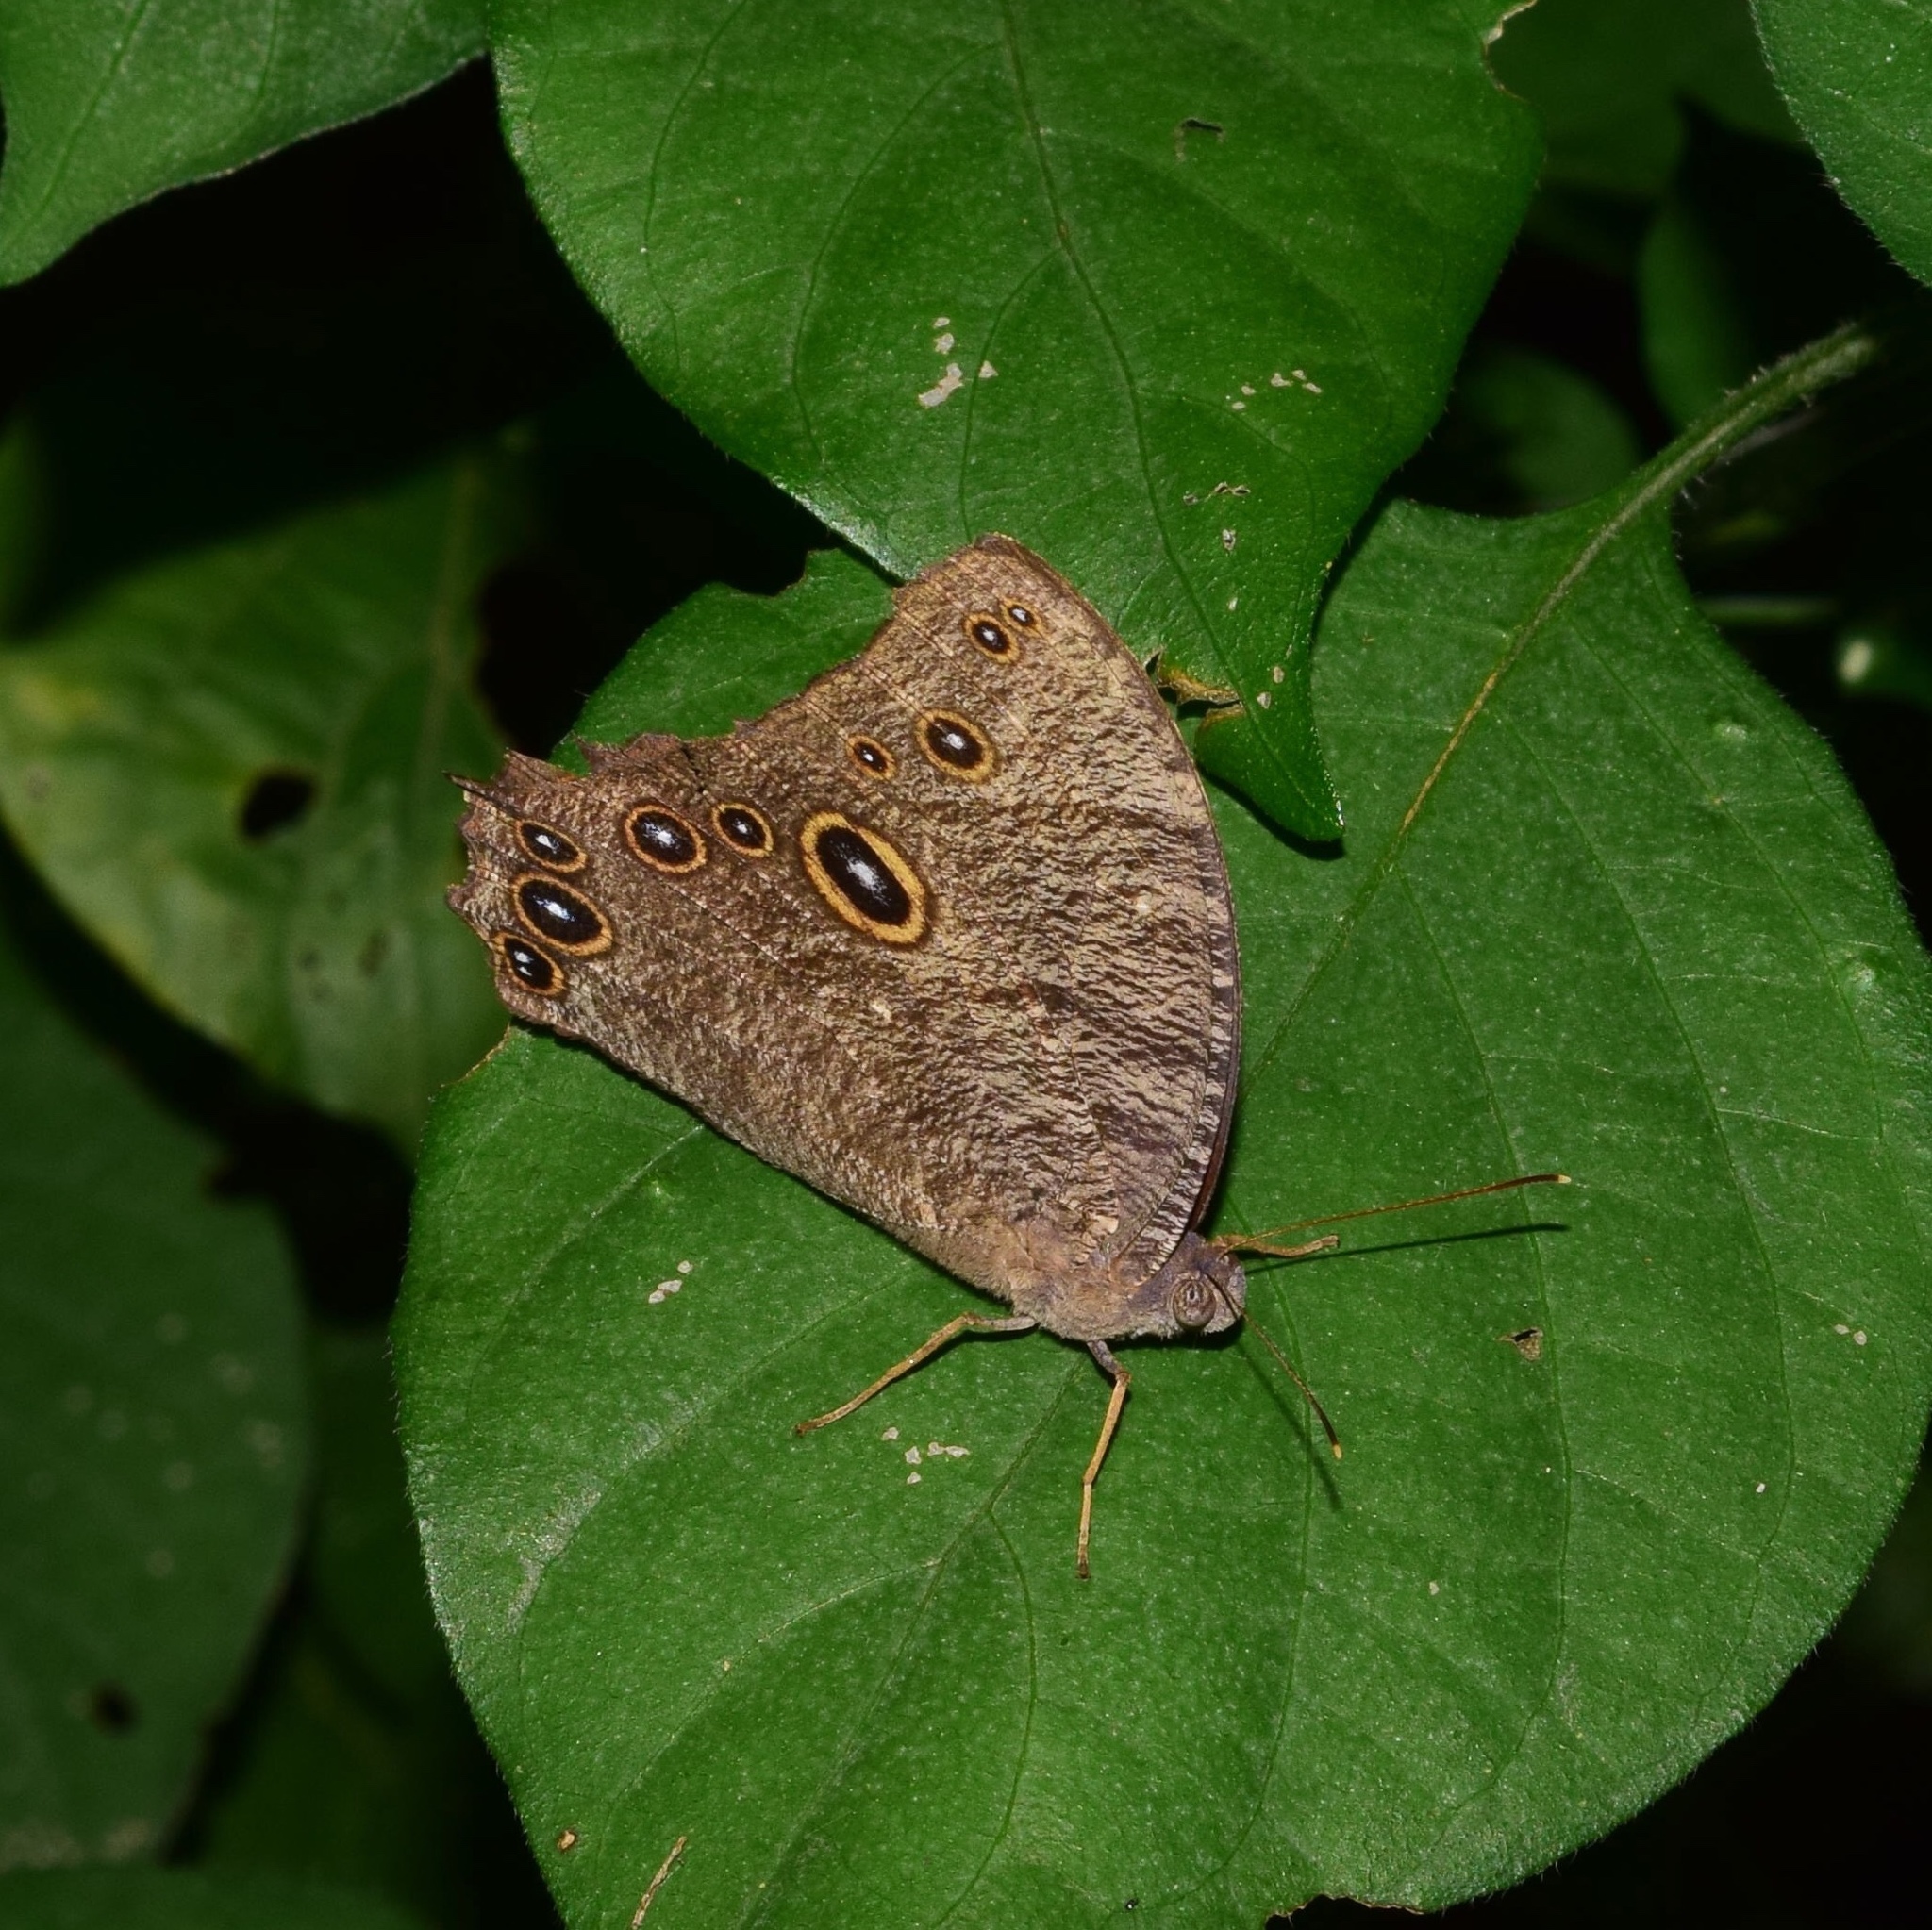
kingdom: Animalia
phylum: Arthropoda
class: Insecta
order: Lepidoptera
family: Nymphalidae
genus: Melanitis
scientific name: Melanitis leda
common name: Twilight brown
